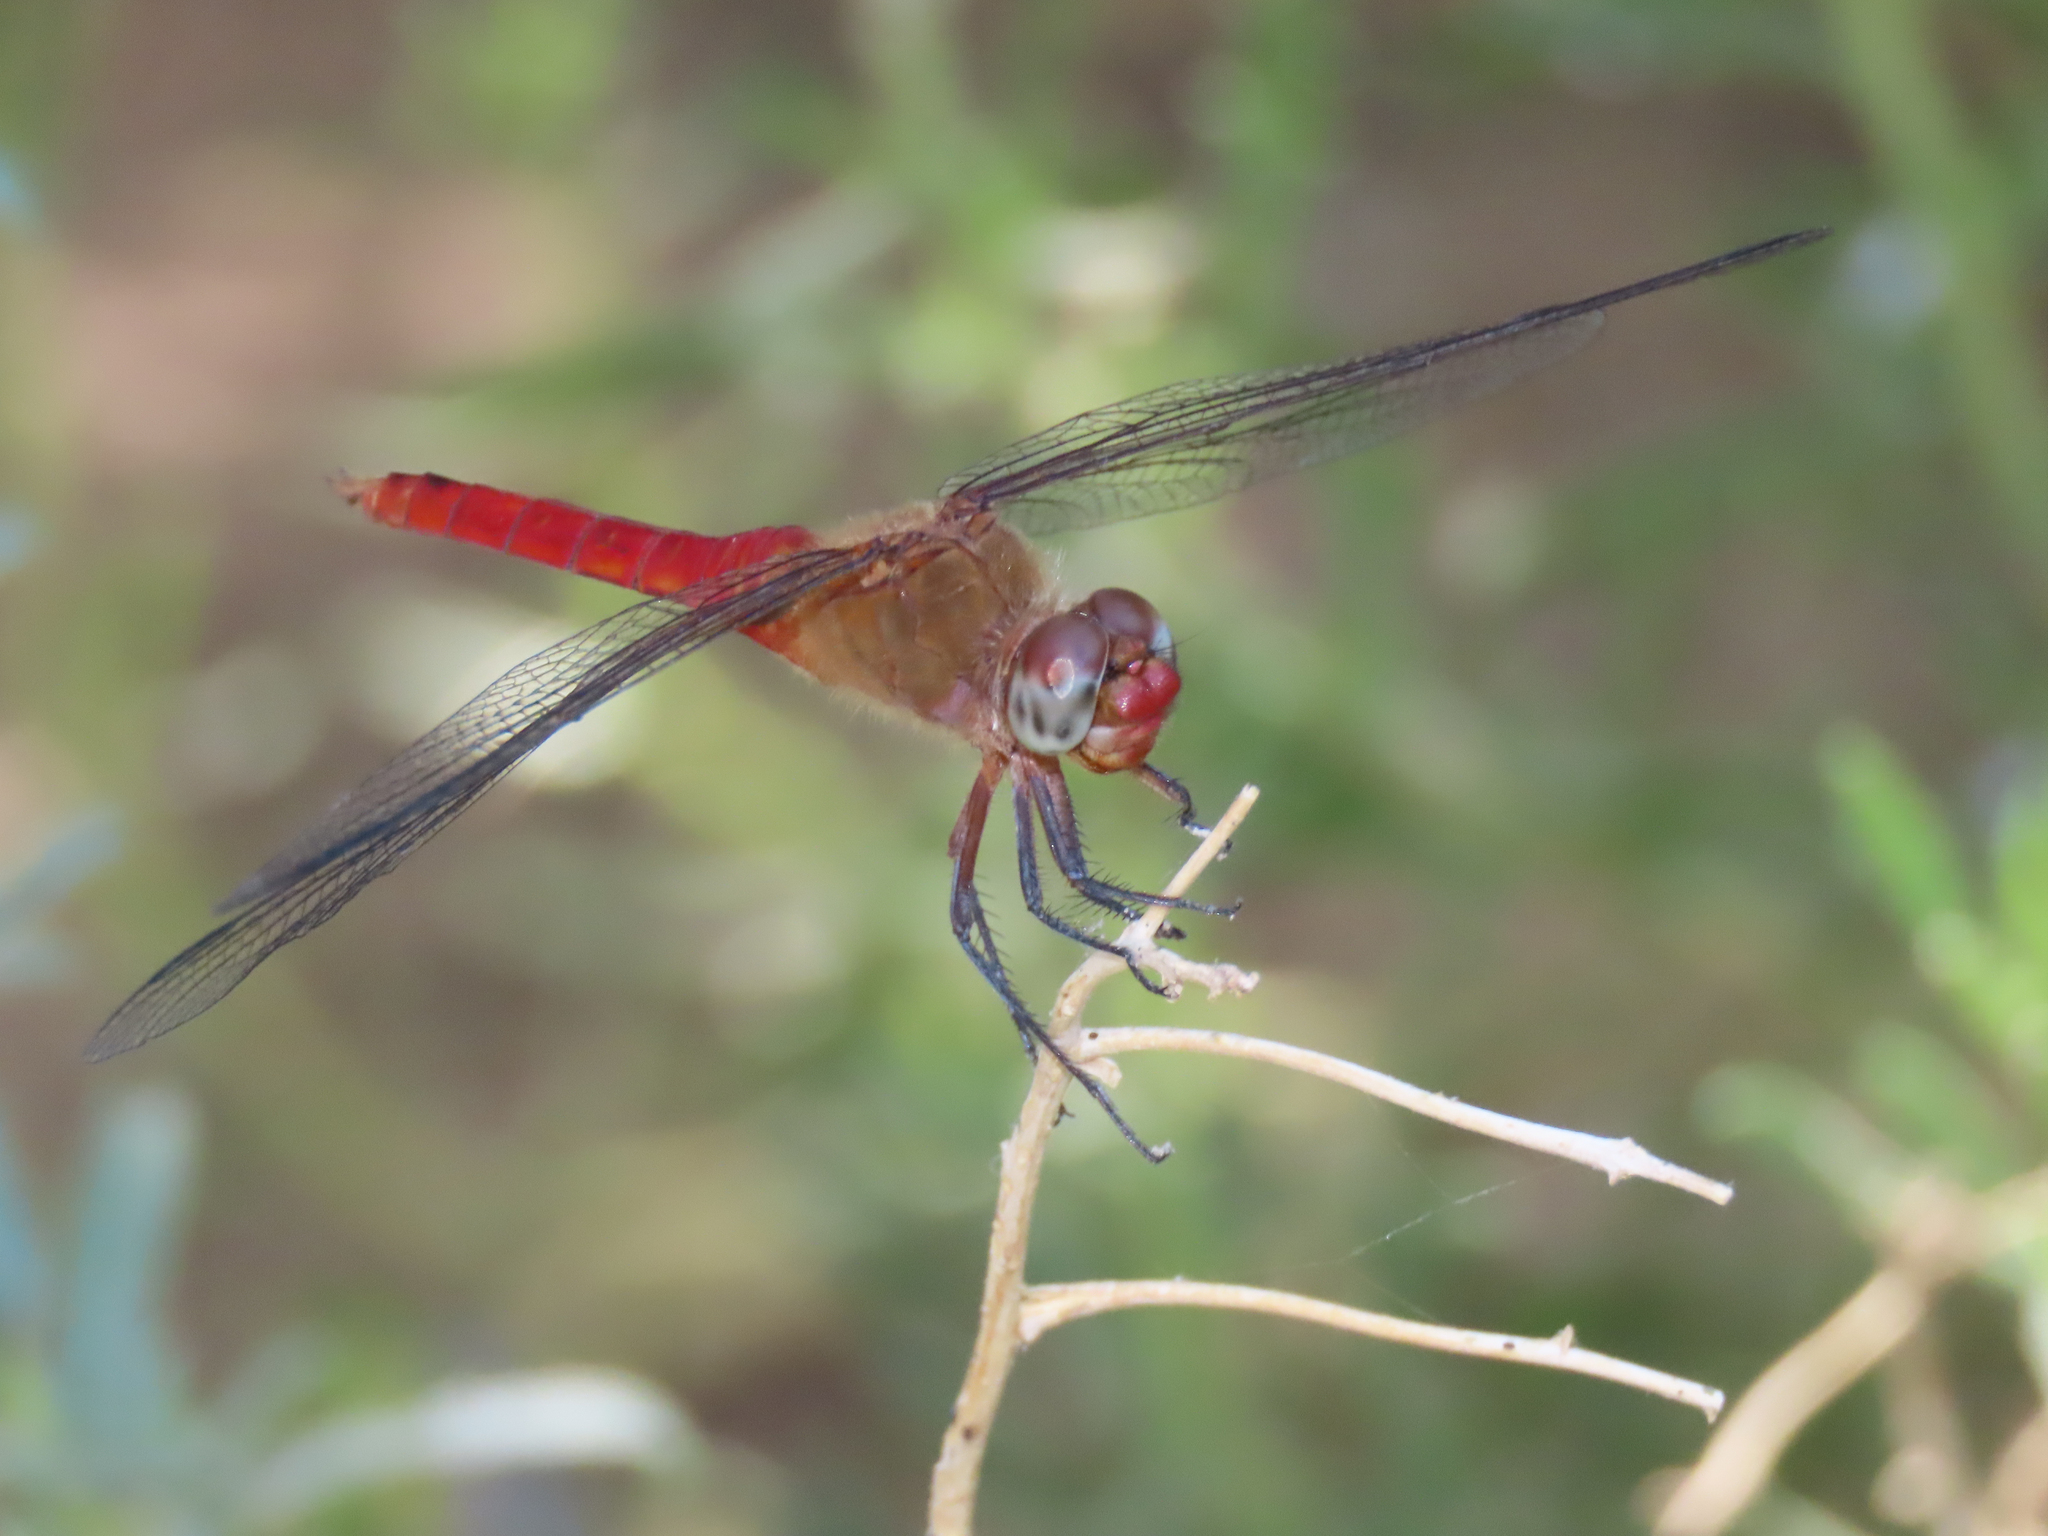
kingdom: Animalia
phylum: Arthropoda
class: Insecta
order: Odonata
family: Libellulidae
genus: Brachymesia
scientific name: Brachymesia furcata
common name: Red-taled pennant
